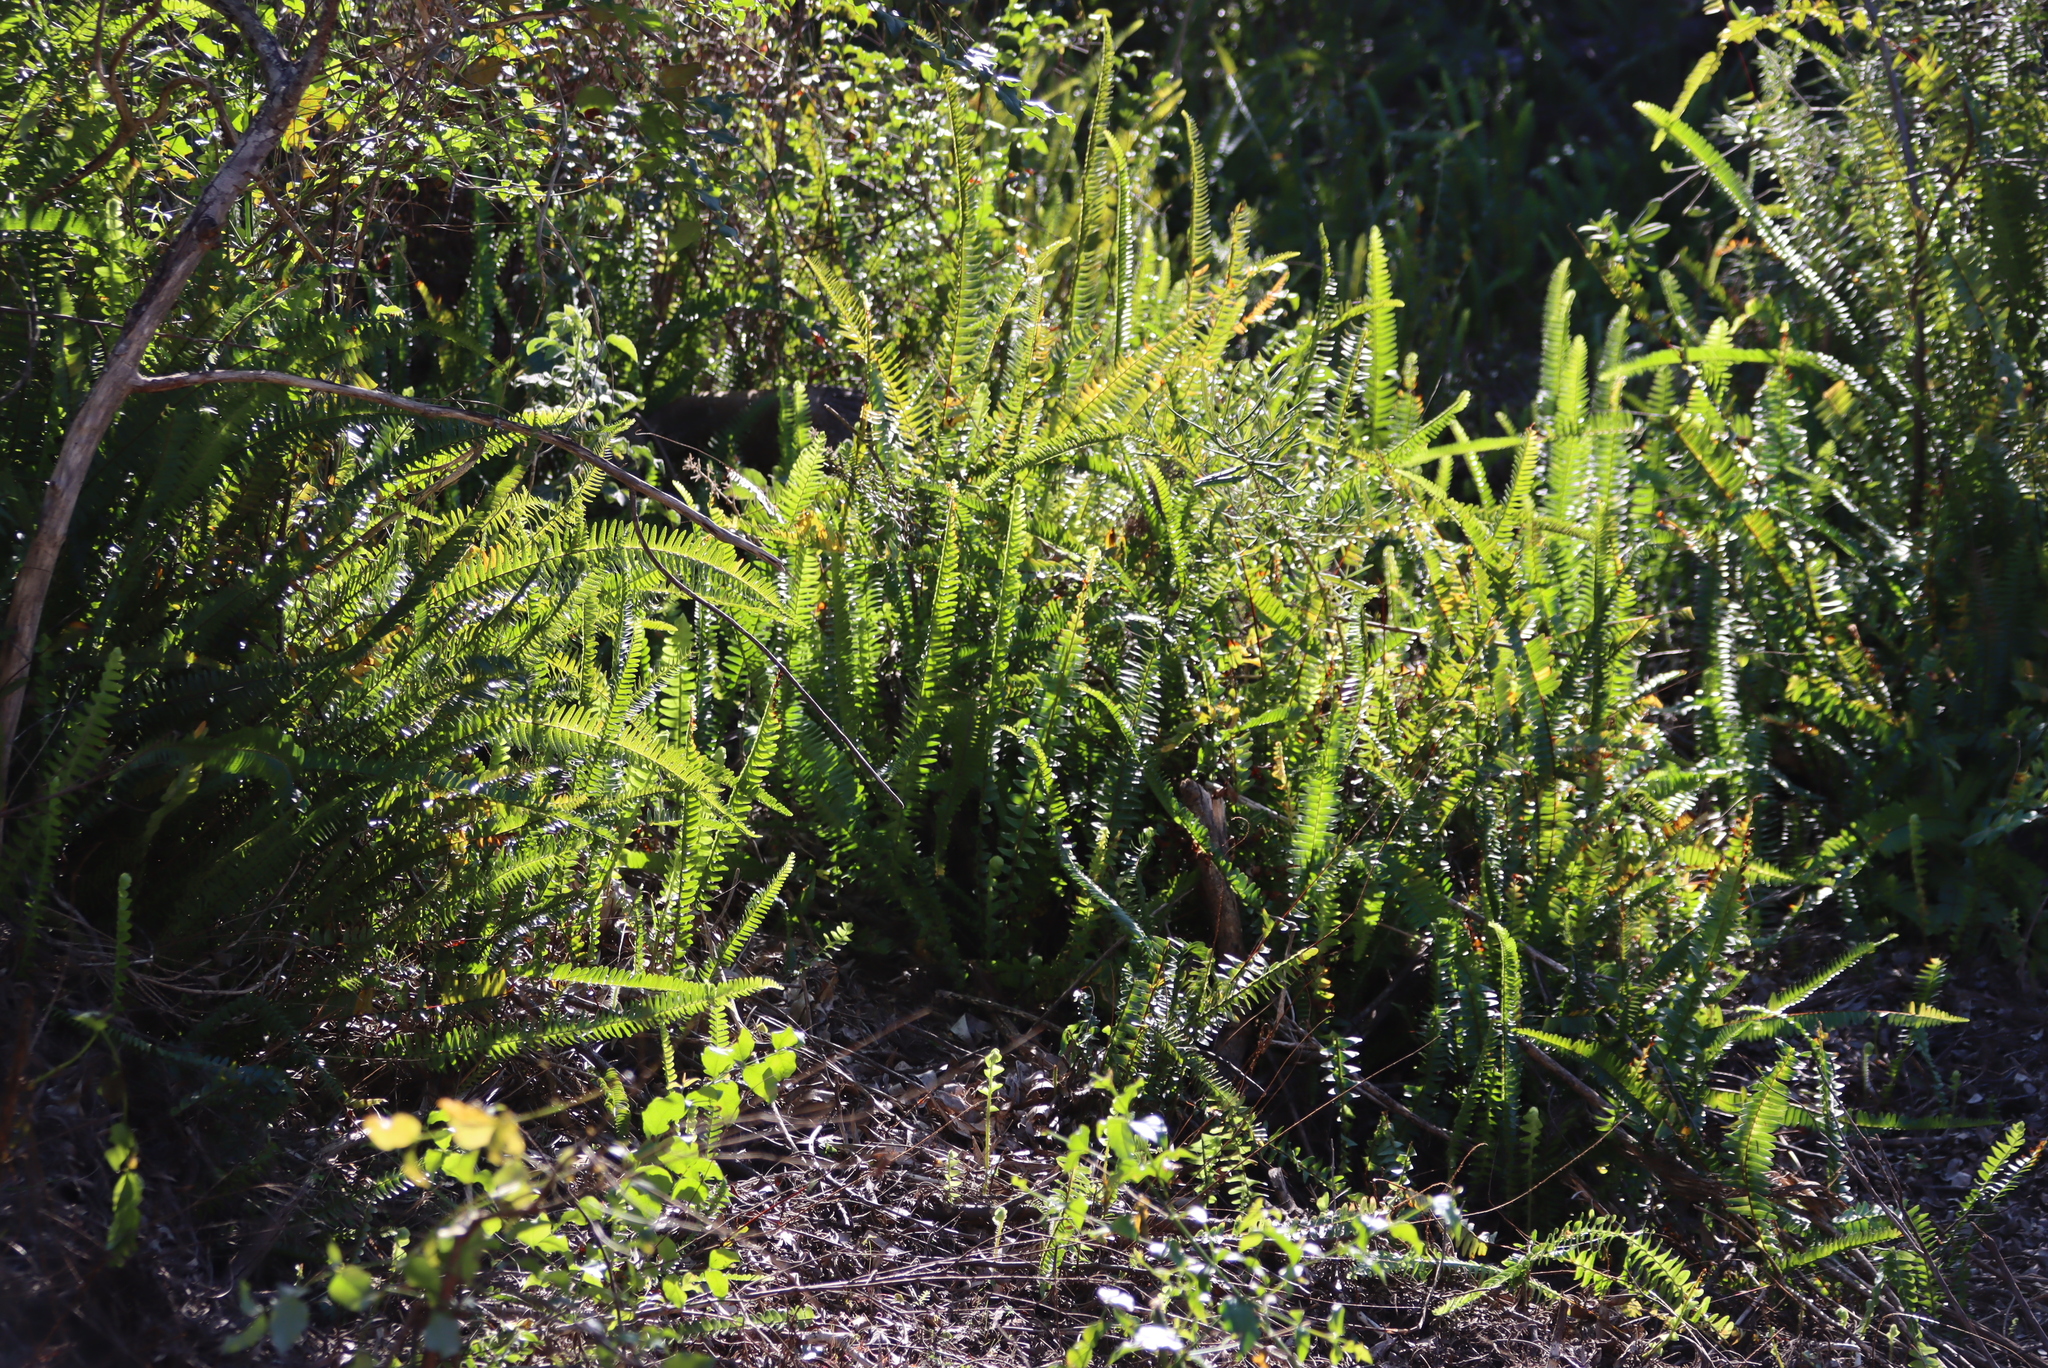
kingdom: Plantae
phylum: Tracheophyta
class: Polypodiopsida
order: Polypodiales
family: Nephrolepidaceae
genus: Nephrolepis
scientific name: Nephrolepis cordifolia
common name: Narrow swordfern
